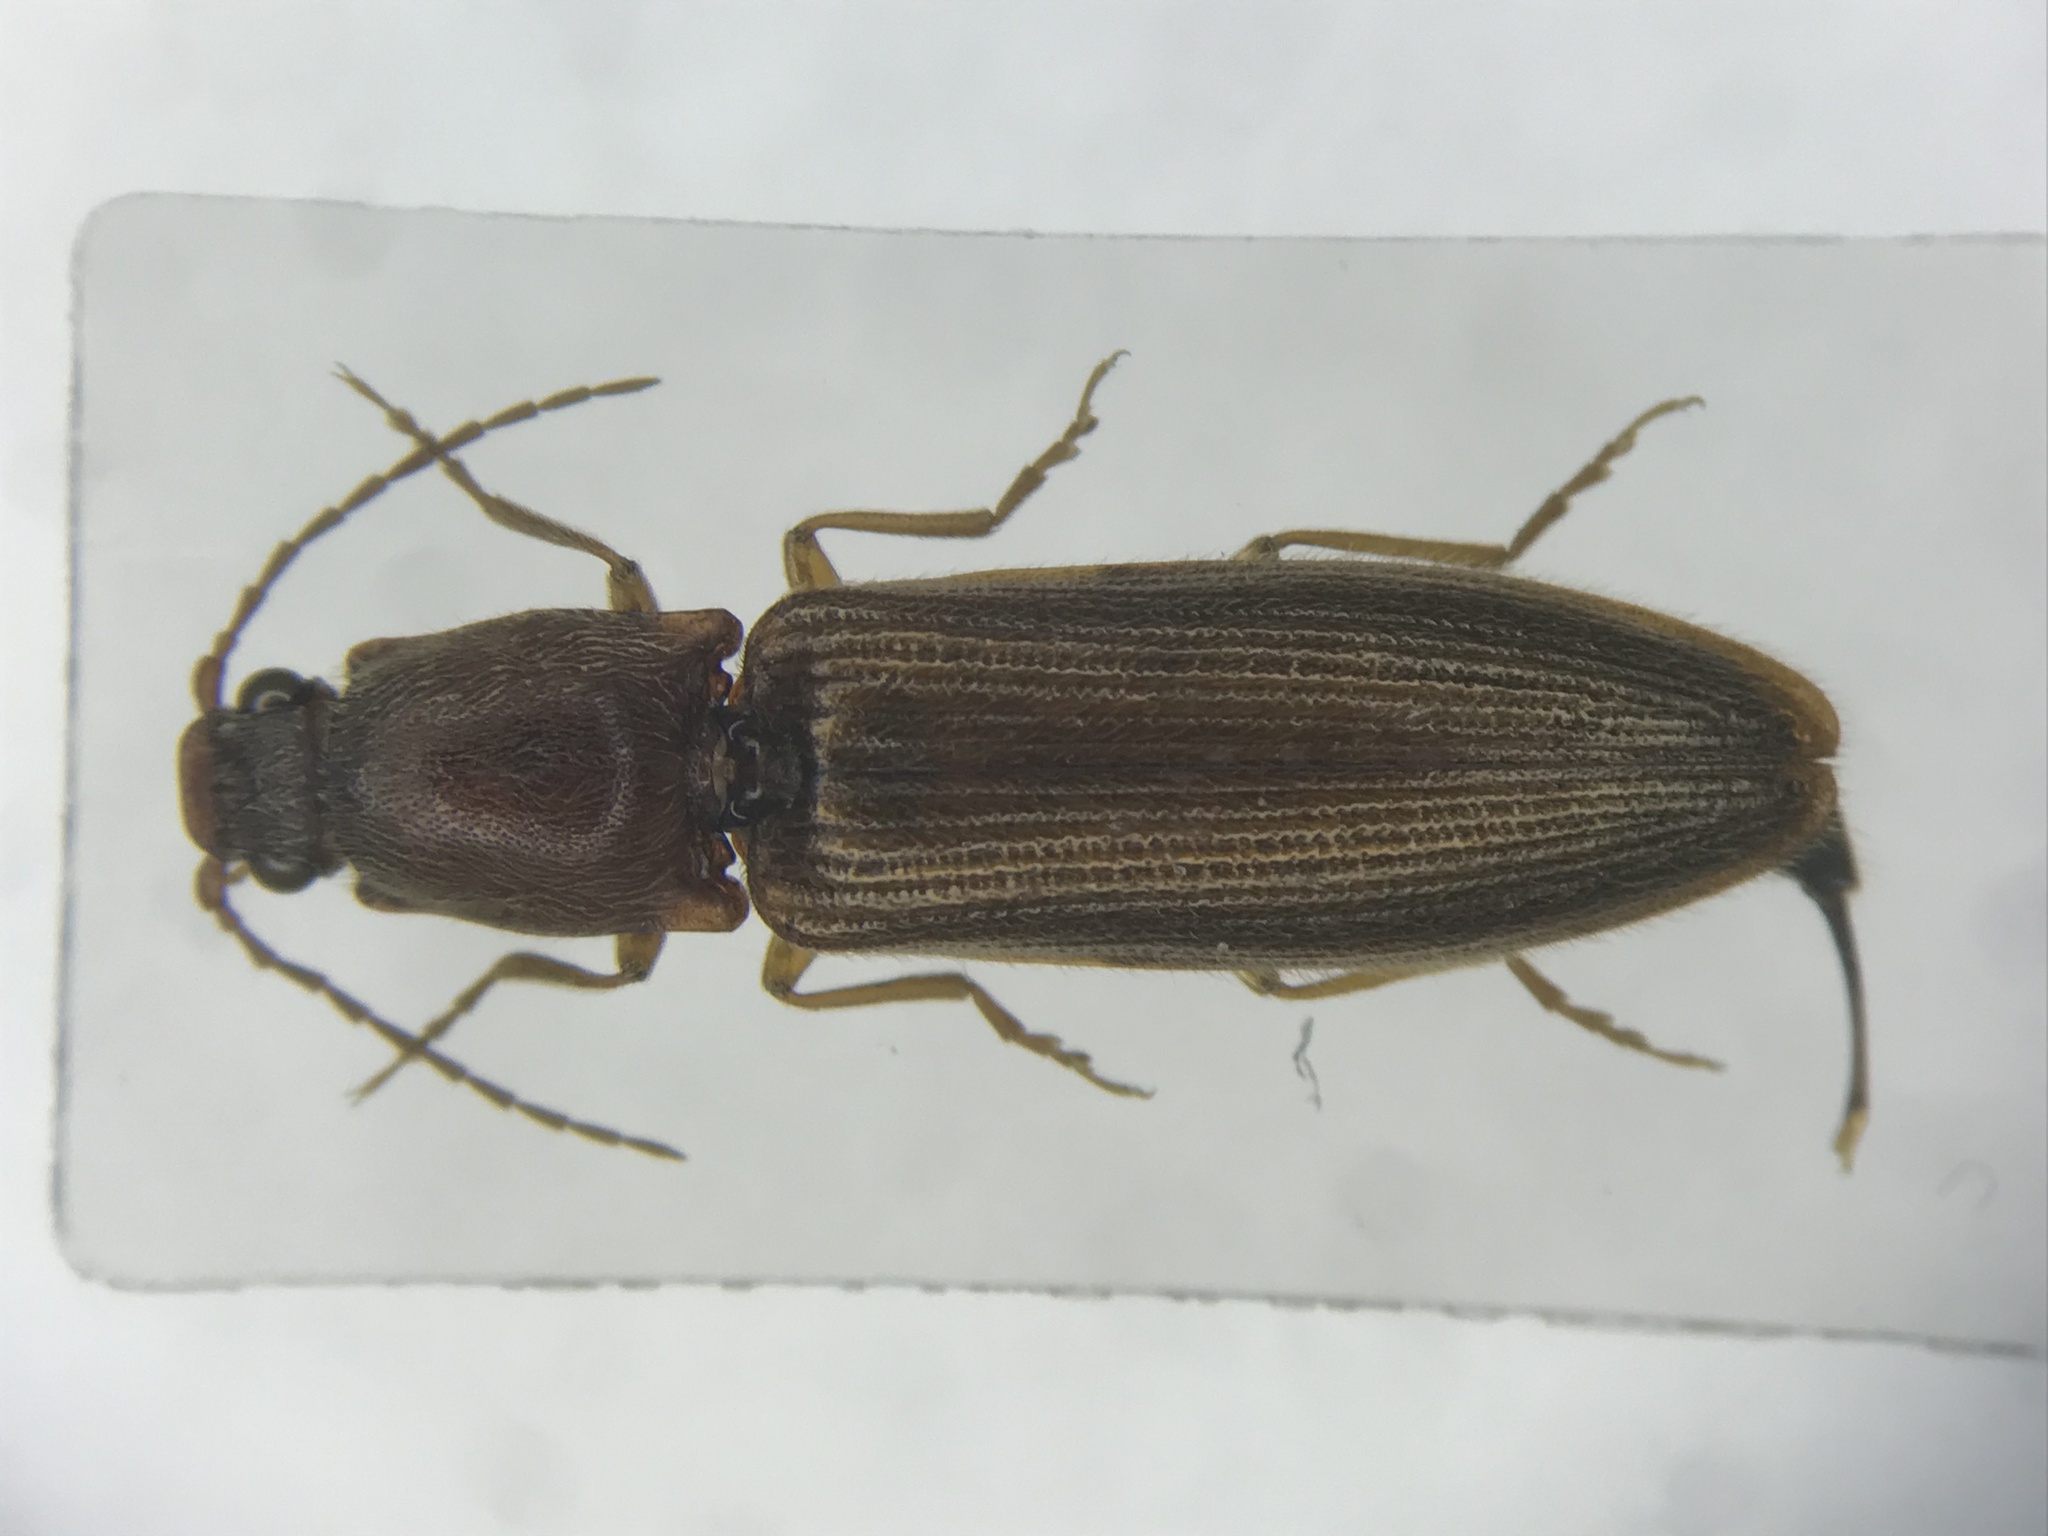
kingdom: Animalia
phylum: Arthropoda
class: Insecta
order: Coleoptera
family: Elateridae
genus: Athous
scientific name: Athous brightwelli
